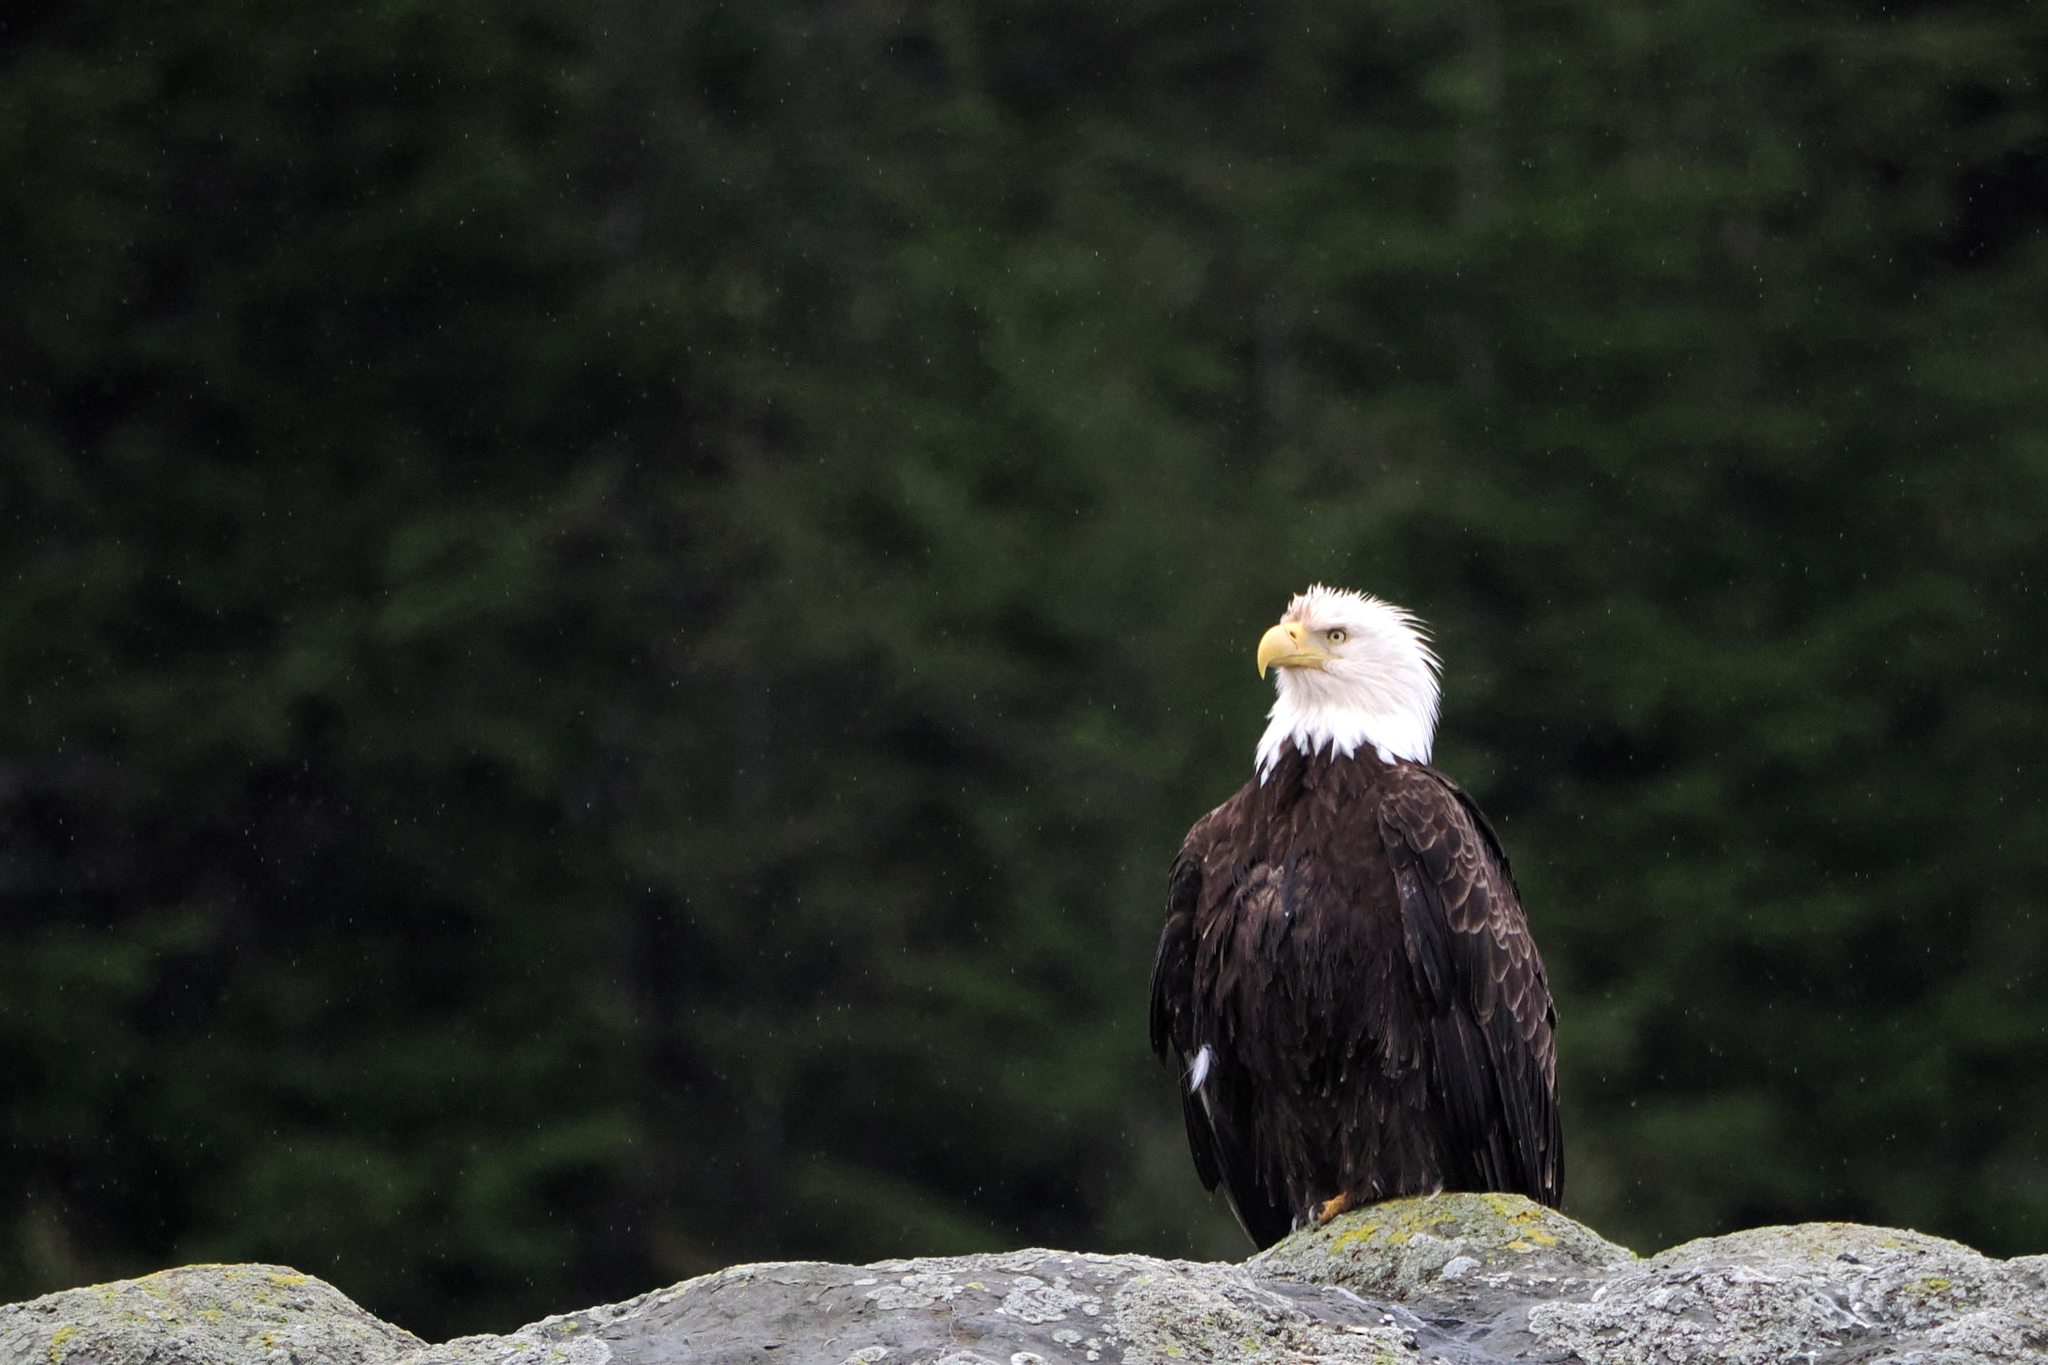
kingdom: Animalia
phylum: Chordata
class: Aves
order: Accipitriformes
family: Accipitridae
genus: Haliaeetus
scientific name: Haliaeetus leucocephalus
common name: Bald eagle
